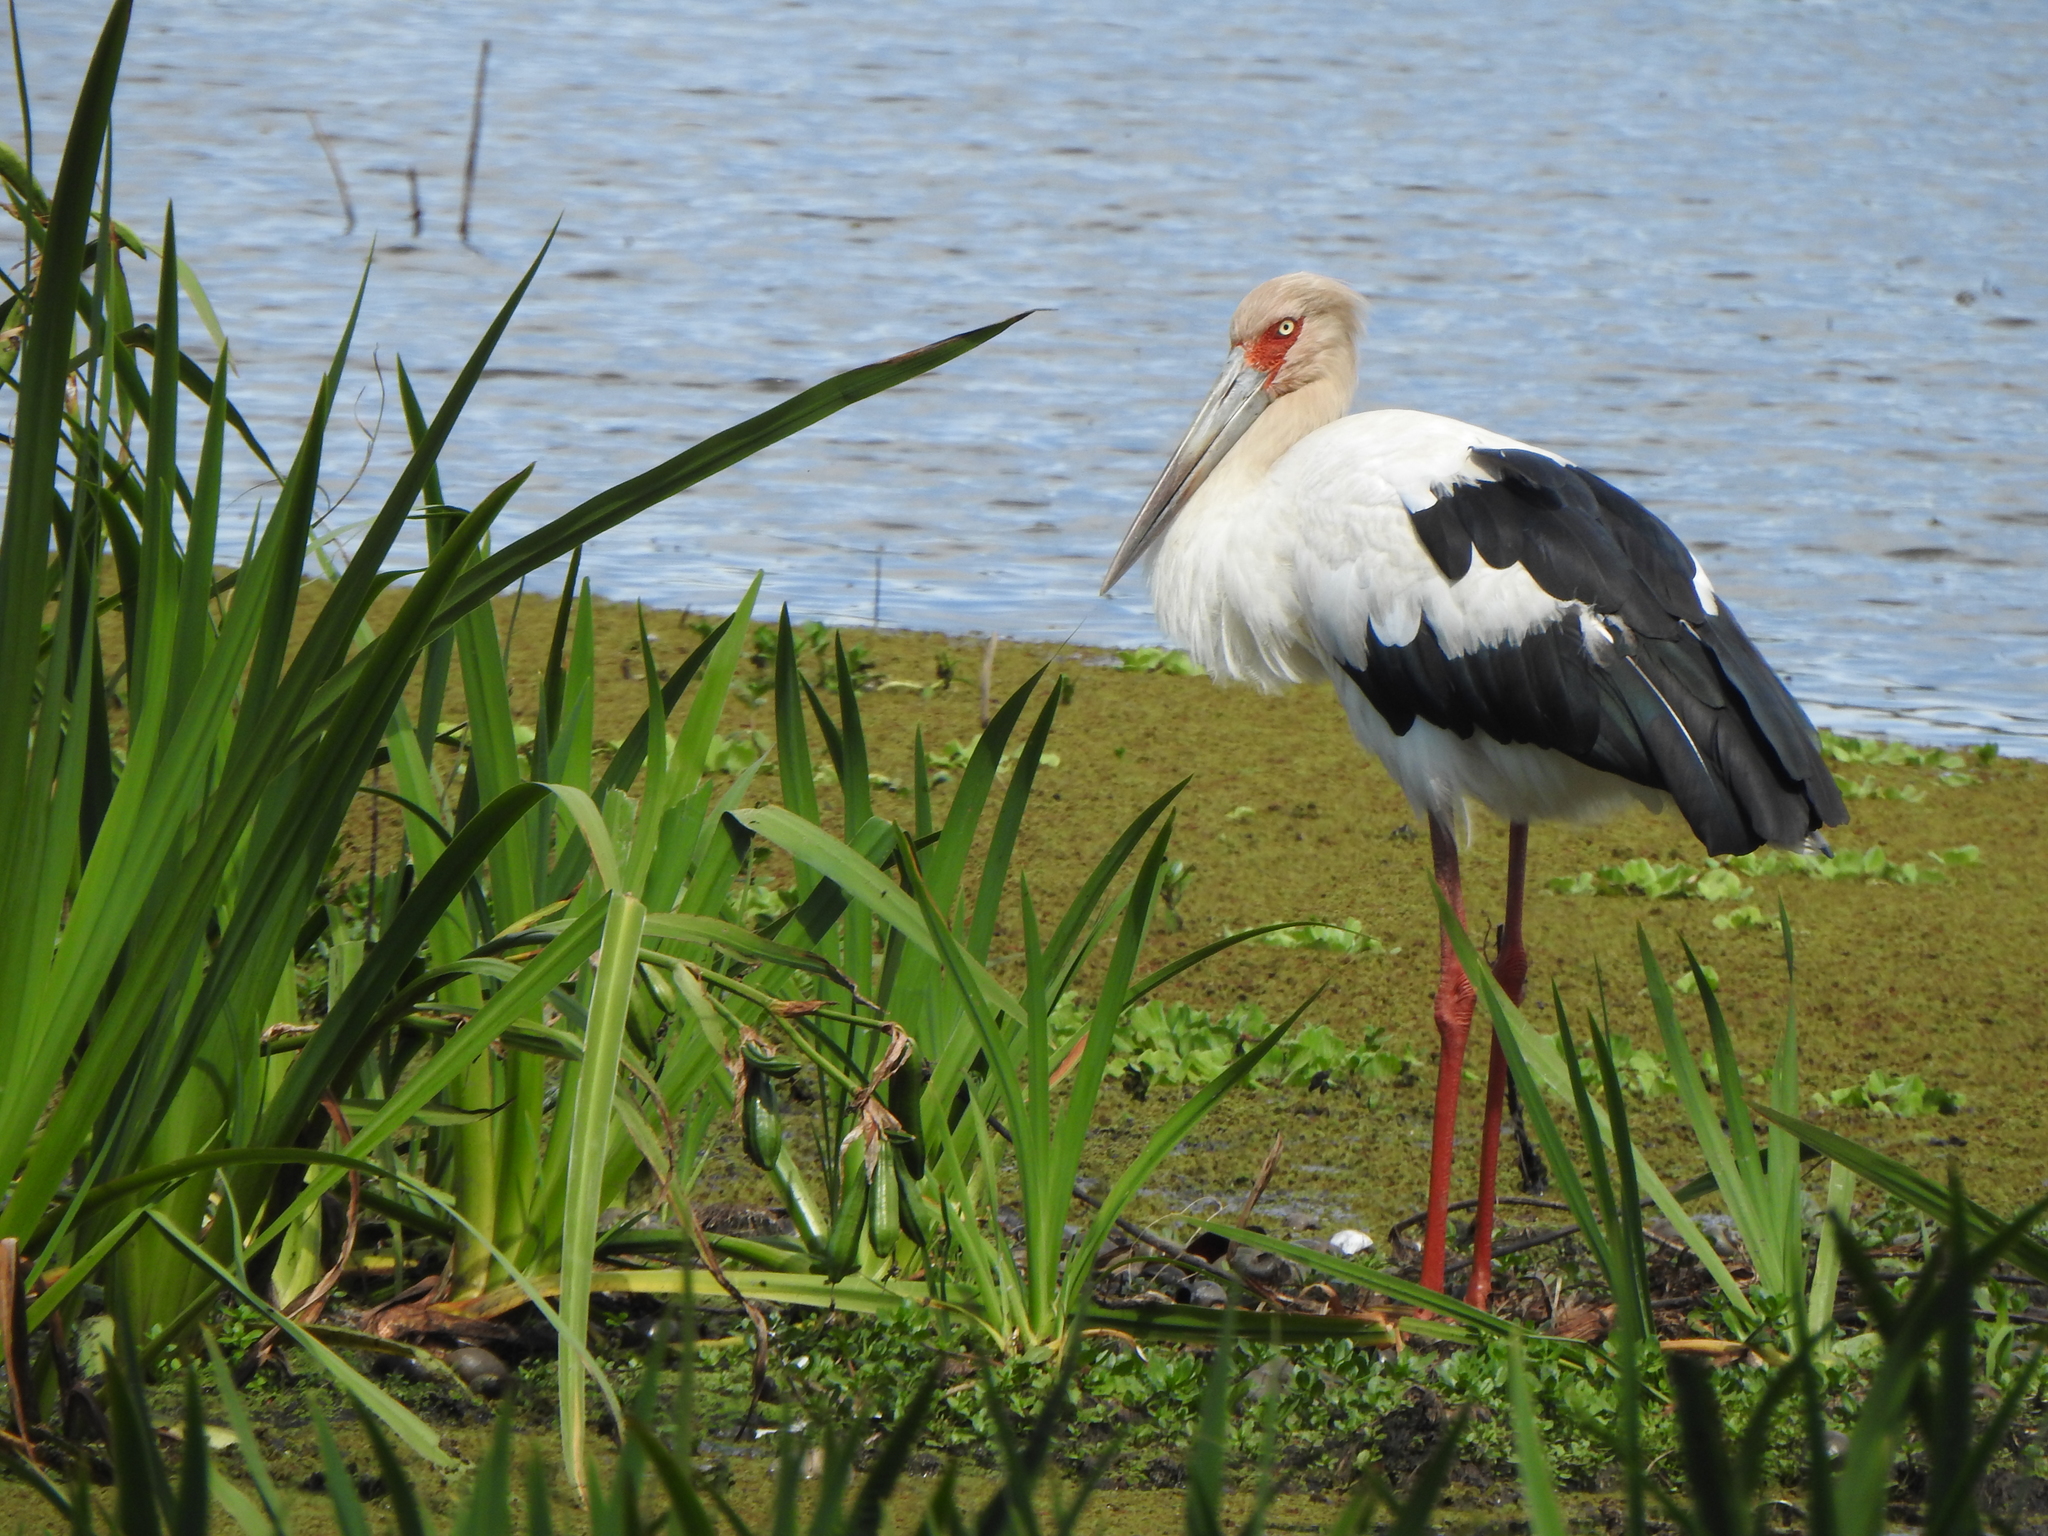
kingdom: Animalia
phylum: Chordata
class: Aves
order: Ciconiiformes
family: Ciconiidae
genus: Ciconia
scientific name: Ciconia maguari
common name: Maguari stork
